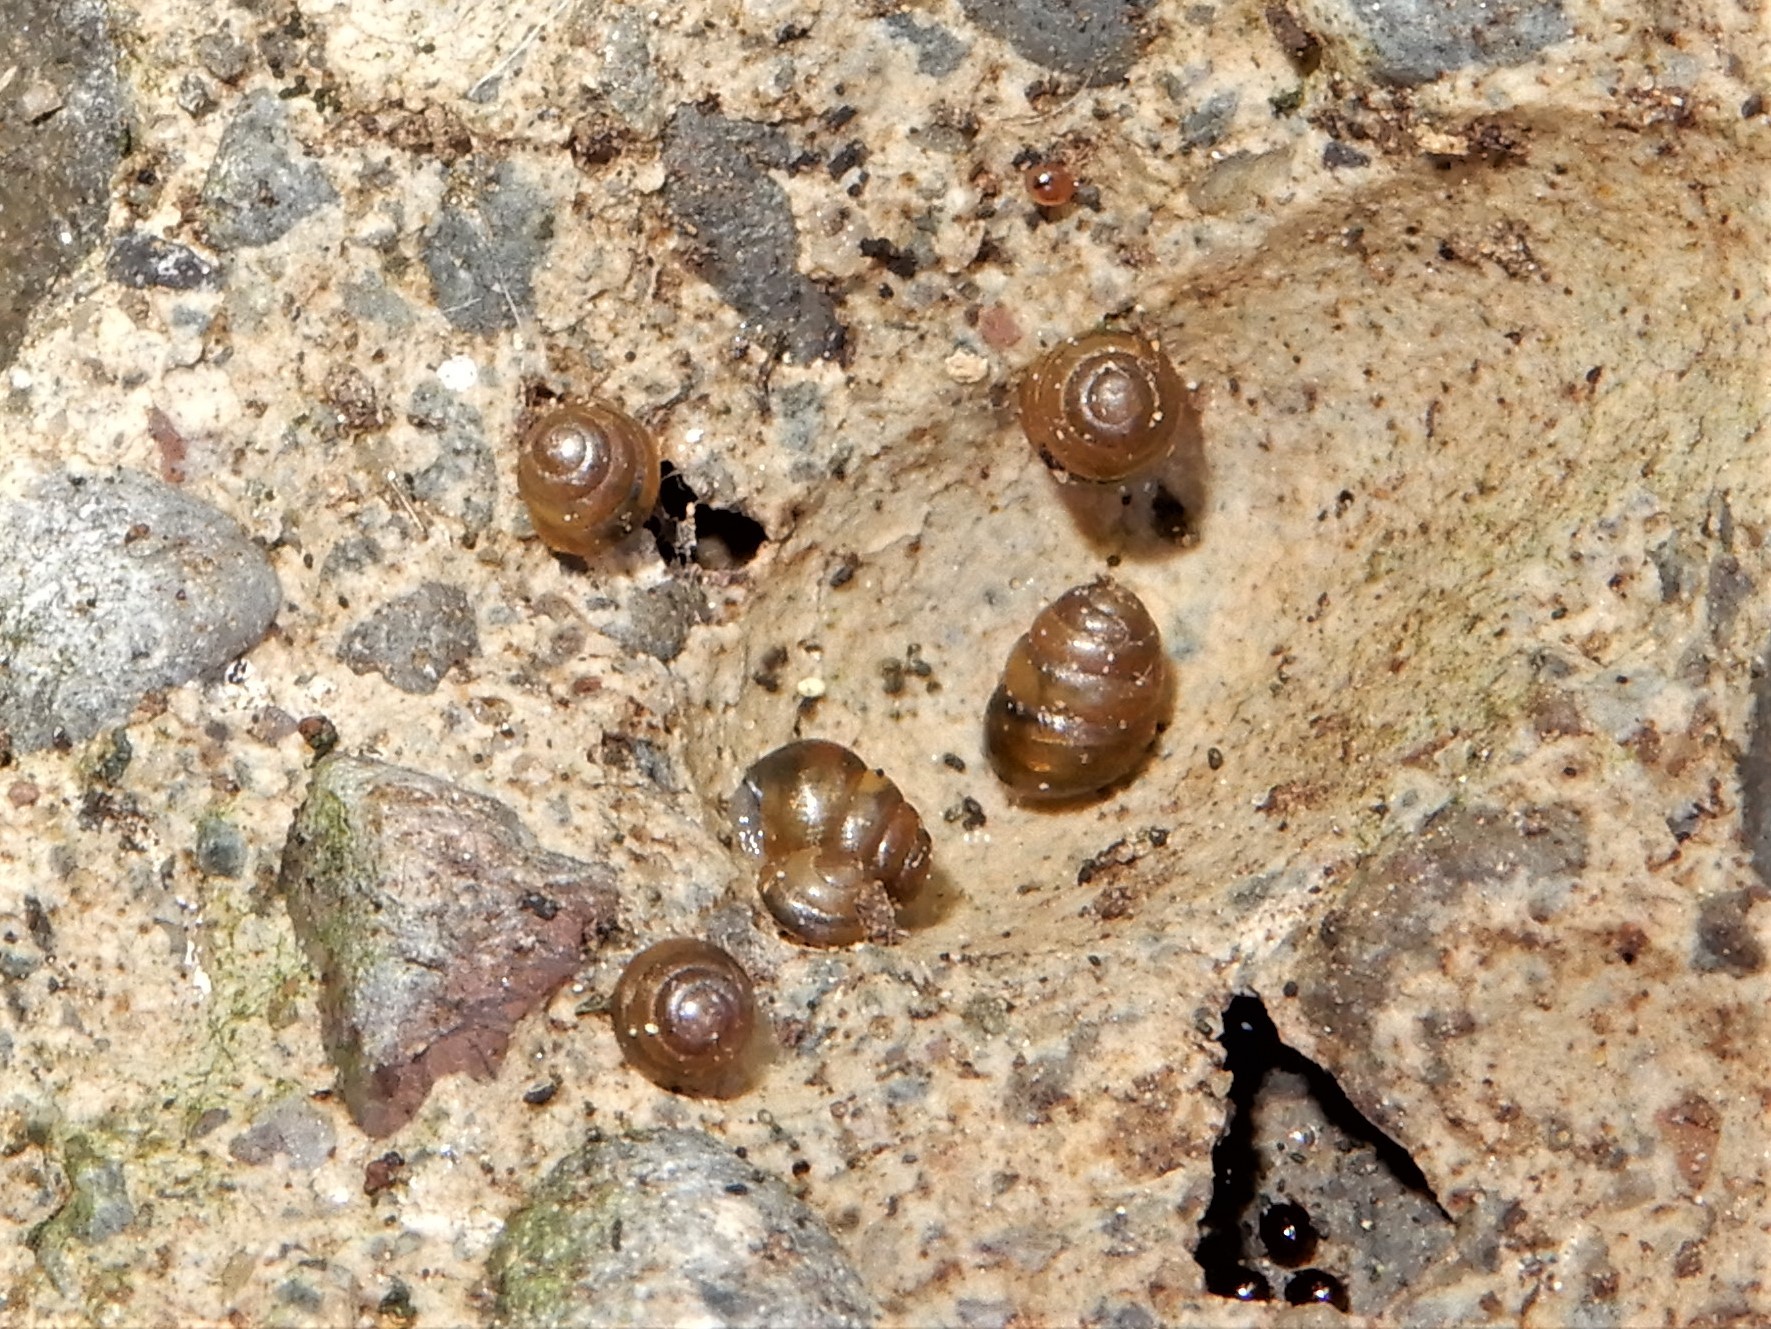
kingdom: Animalia
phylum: Mollusca
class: Gastropoda
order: Stylommatophora
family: Lauriidae
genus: Lauria
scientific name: Lauria cylindracea
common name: Common chrysalis snail
